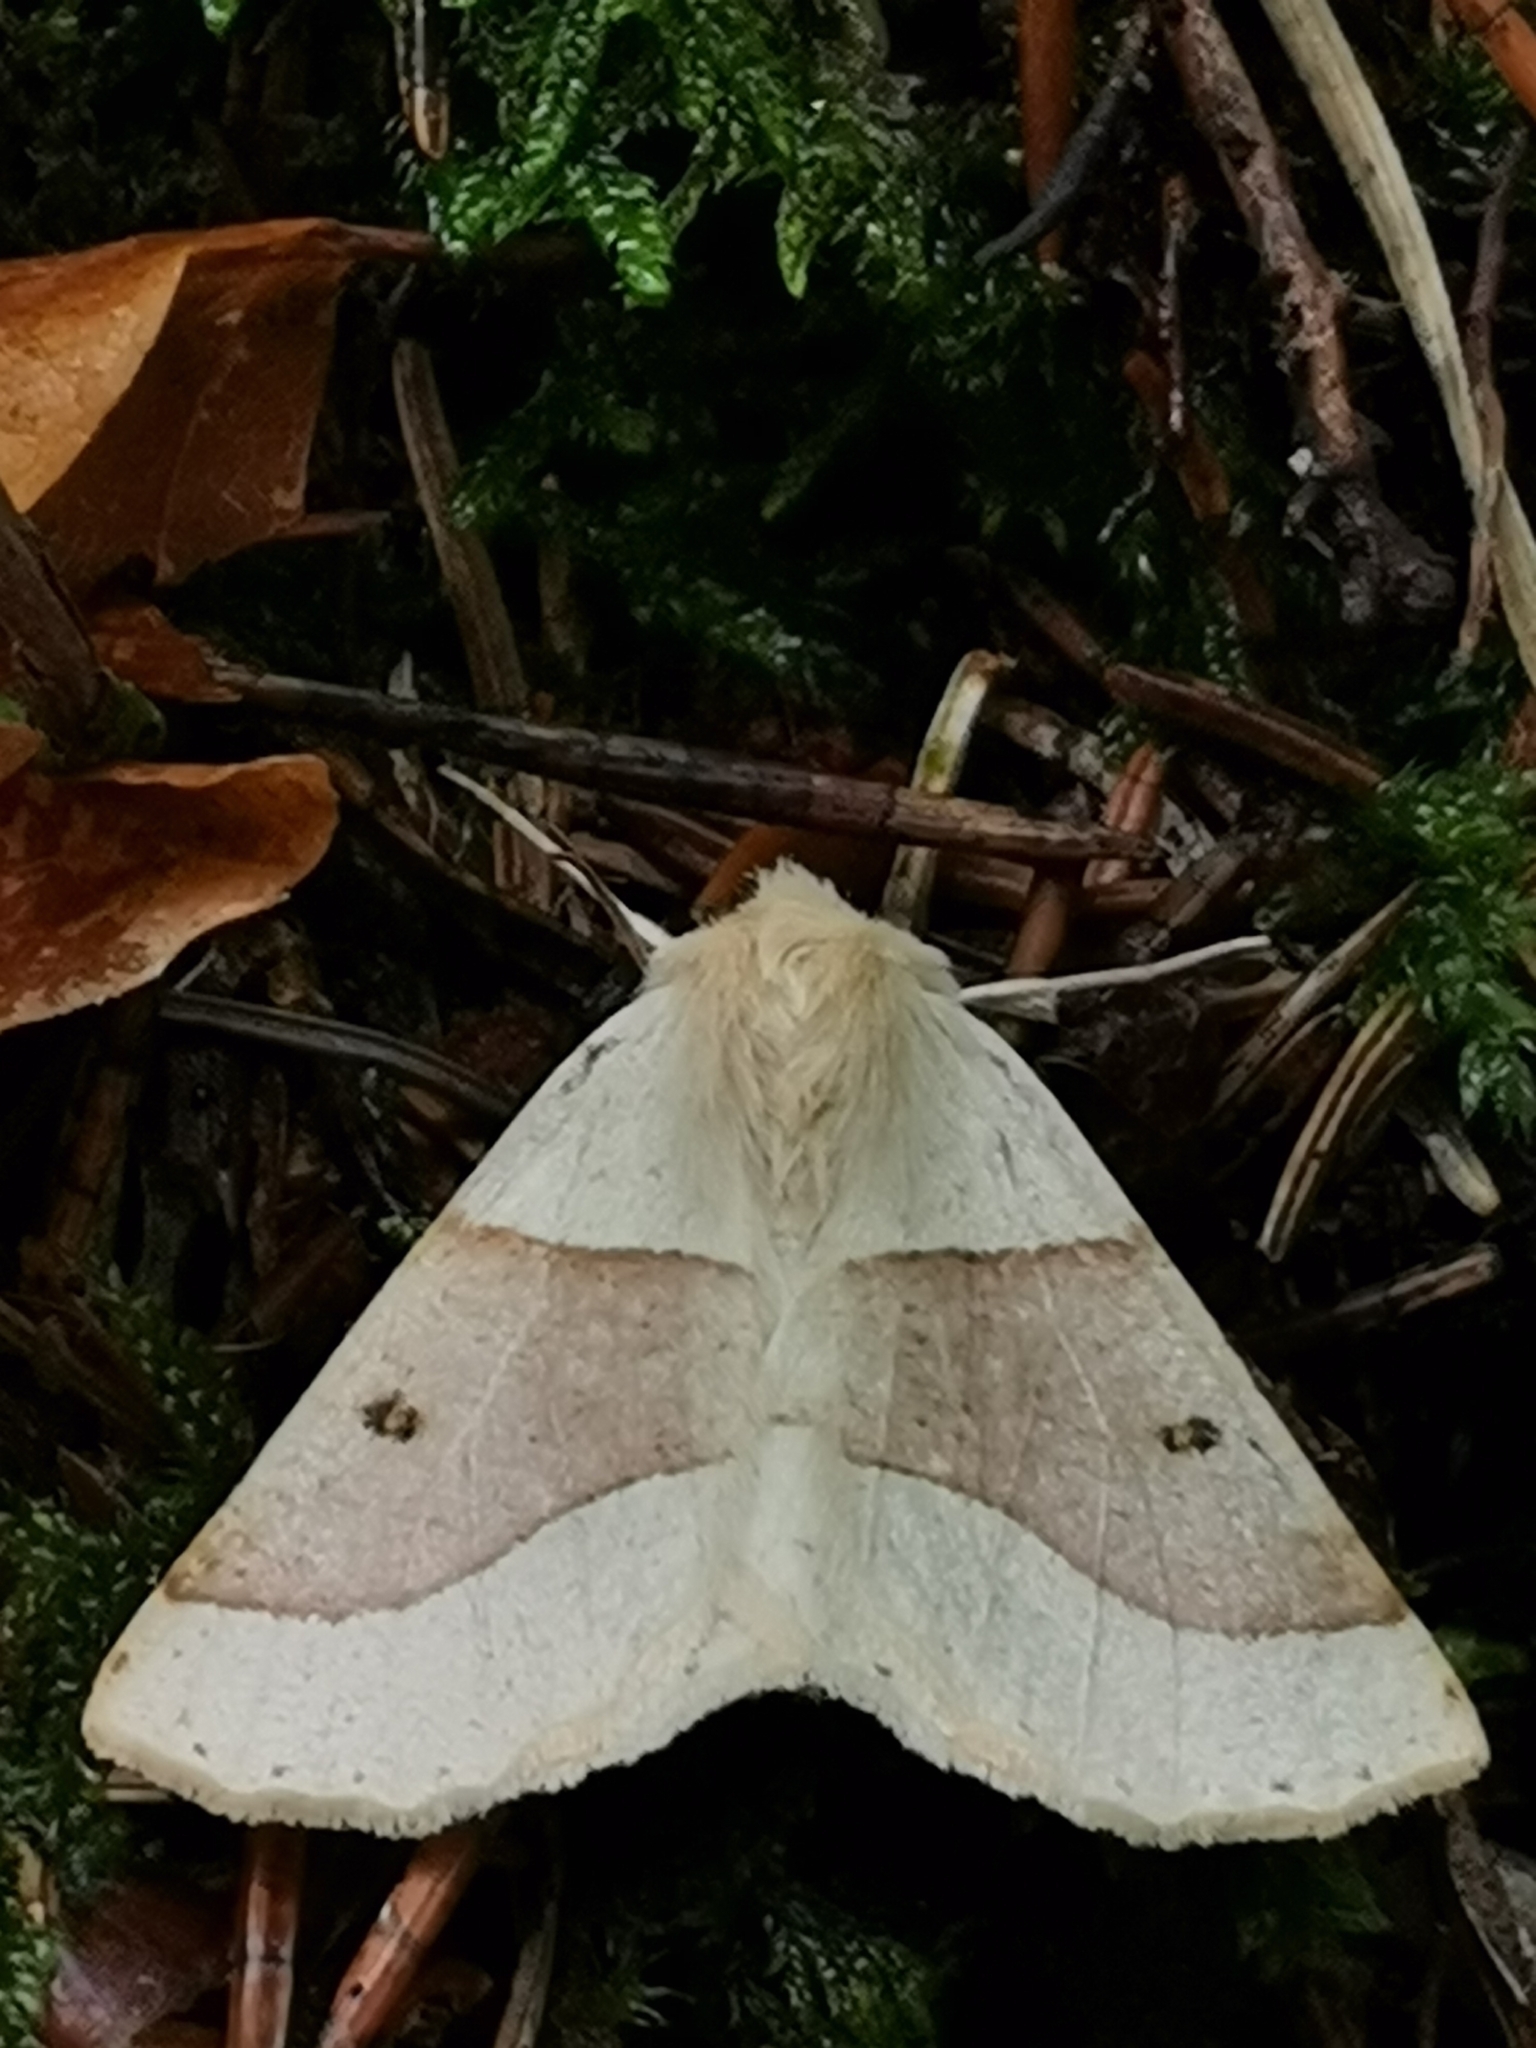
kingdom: Animalia
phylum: Arthropoda
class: Insecta
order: Lepidoptera
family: Geometridae
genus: Crocallis
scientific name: Crocallis elinguaria
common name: Scalloped oak
